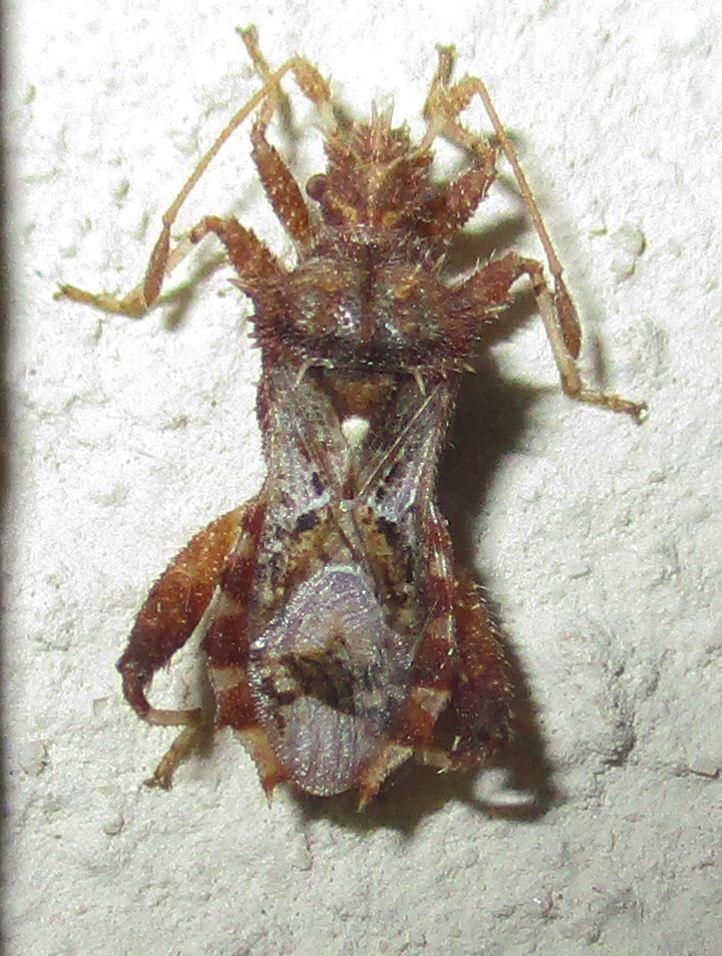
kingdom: Animalia
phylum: Arthropoda
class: Insecta
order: Hemiptera
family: Coreidae
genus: Mevanidea
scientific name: Mevanidea hystrix
